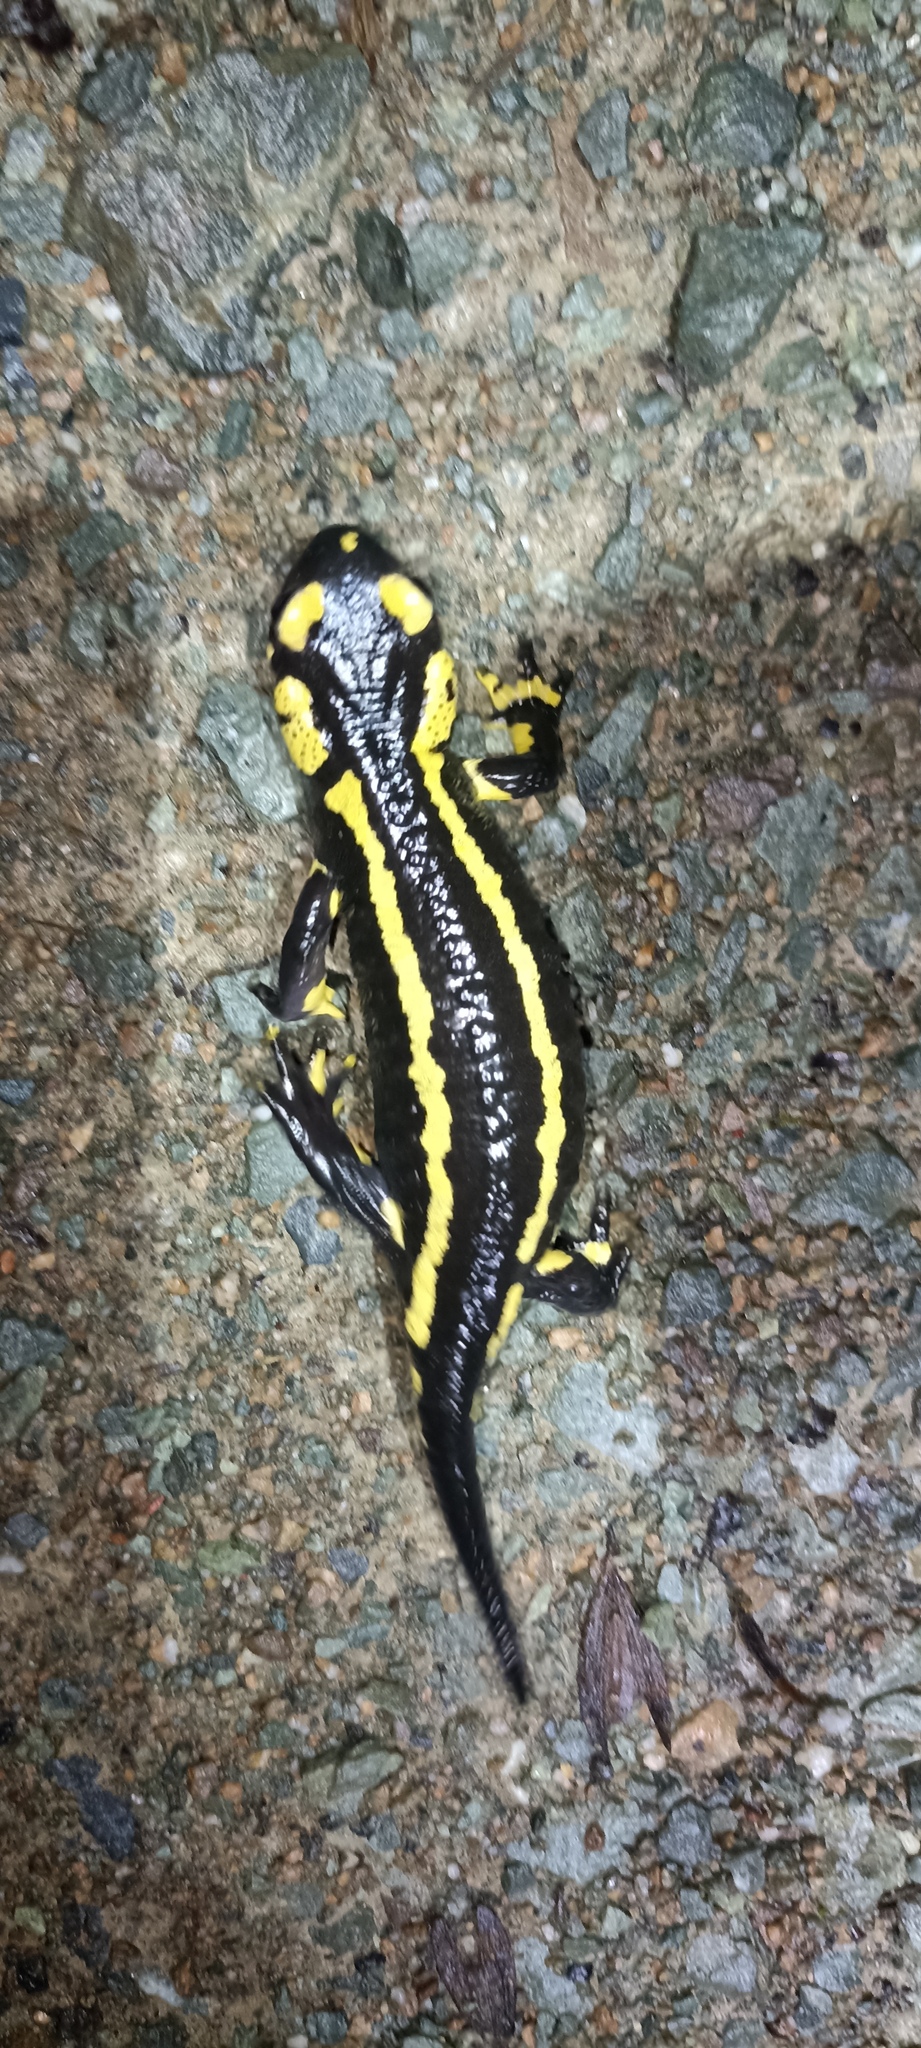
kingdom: Animalia
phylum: Chordata
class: Amphibia
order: Caudata
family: Salamandridae
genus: Salamandra
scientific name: Salamandra salamandra
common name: Fire salamander
